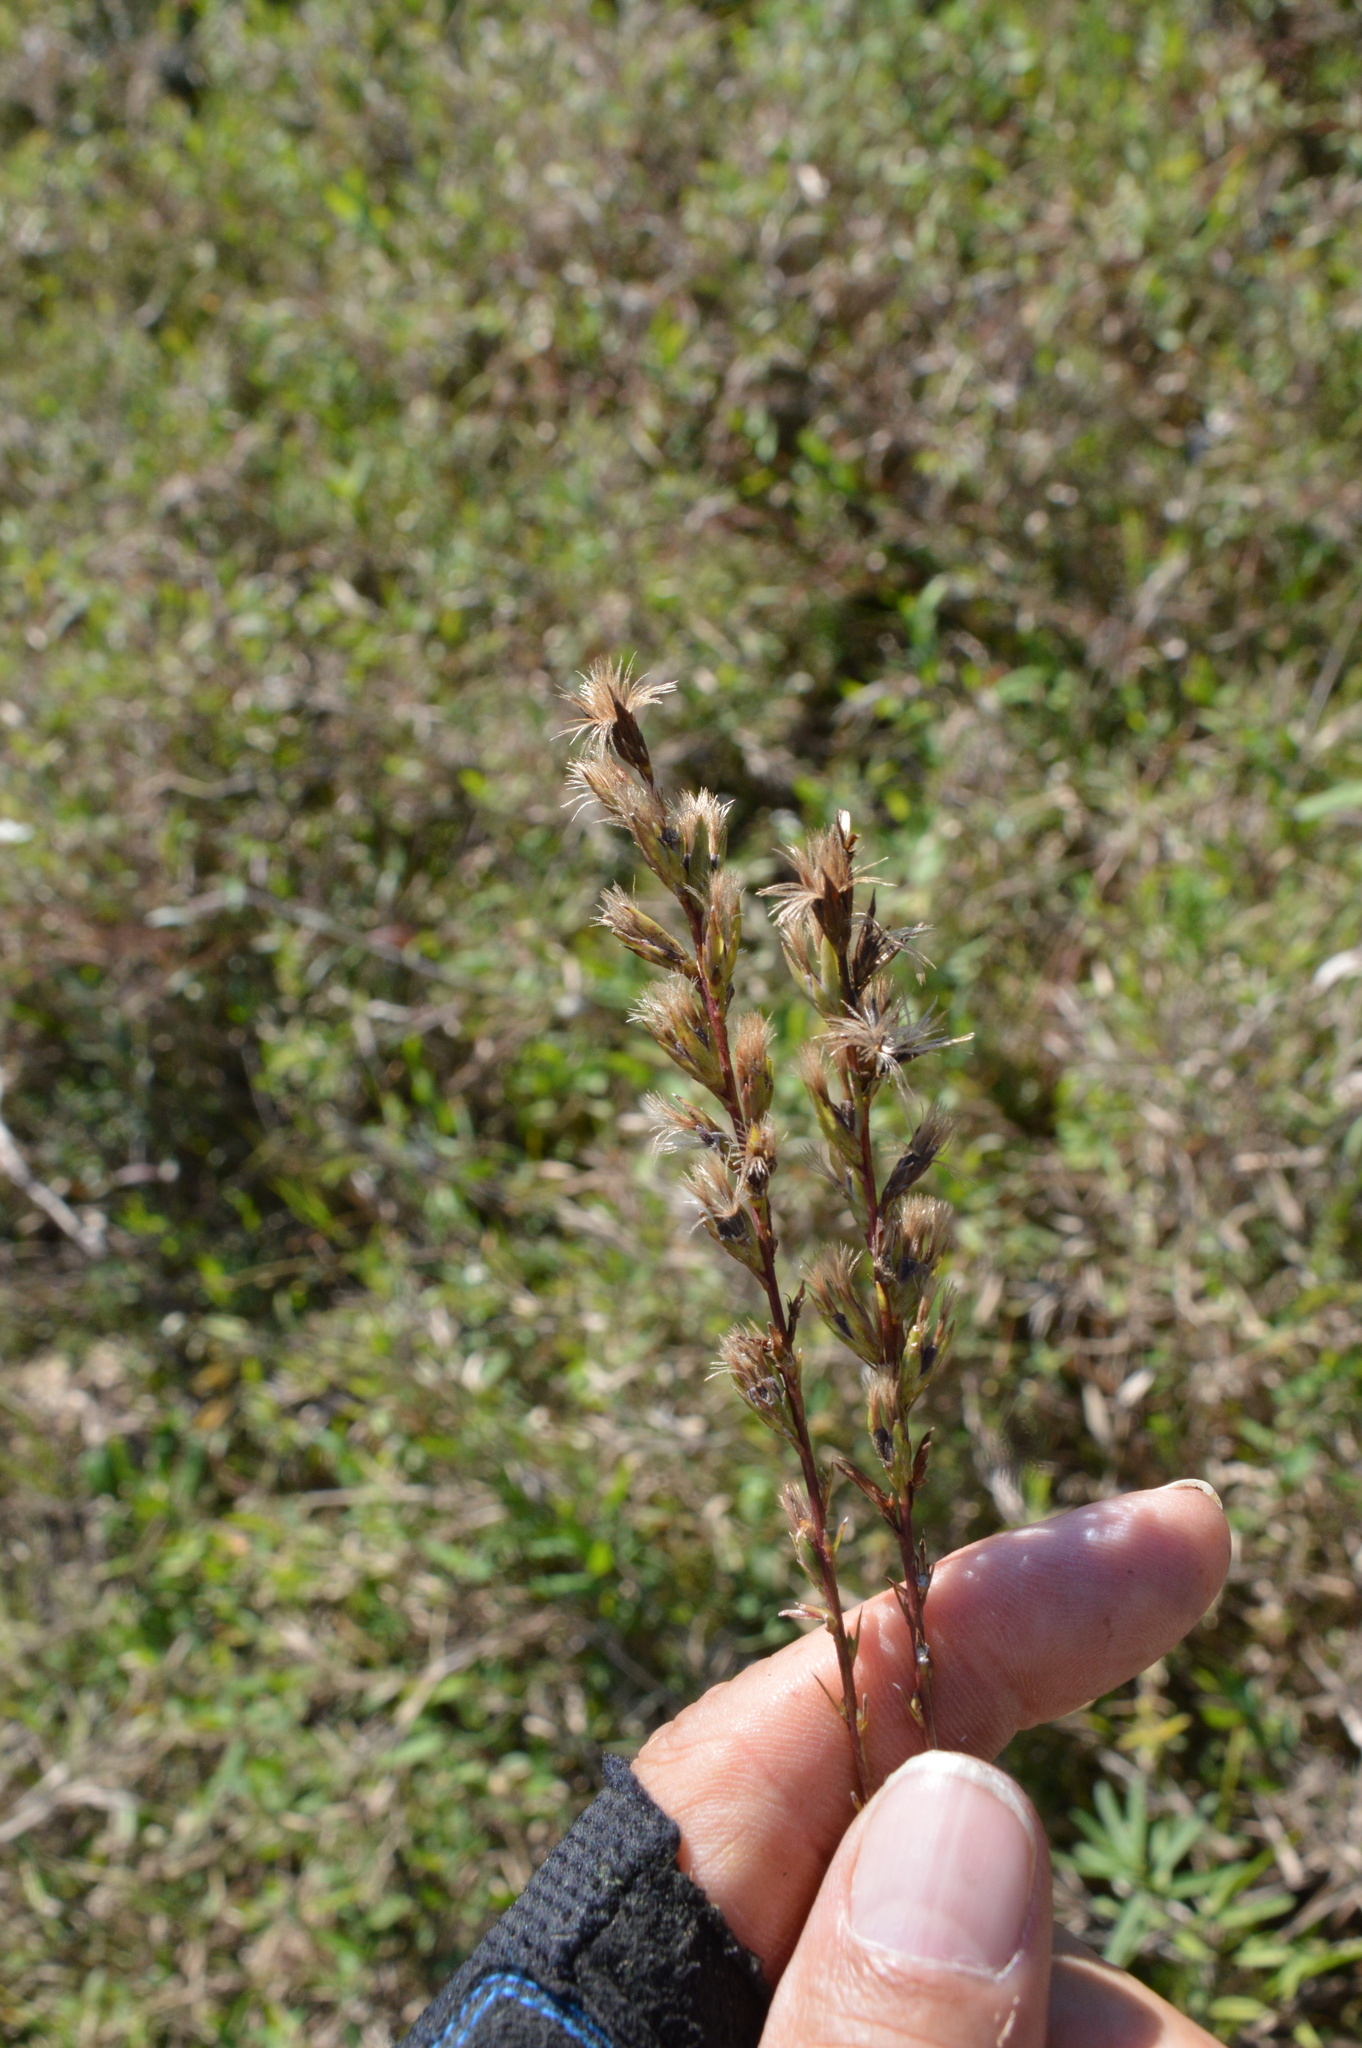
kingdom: Plantae
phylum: Tracheophyta
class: Magnoliopsida
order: Asterales
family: Asteraceae
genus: Liatris
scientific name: Liatris acidota
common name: Gulf coast gayfeather
